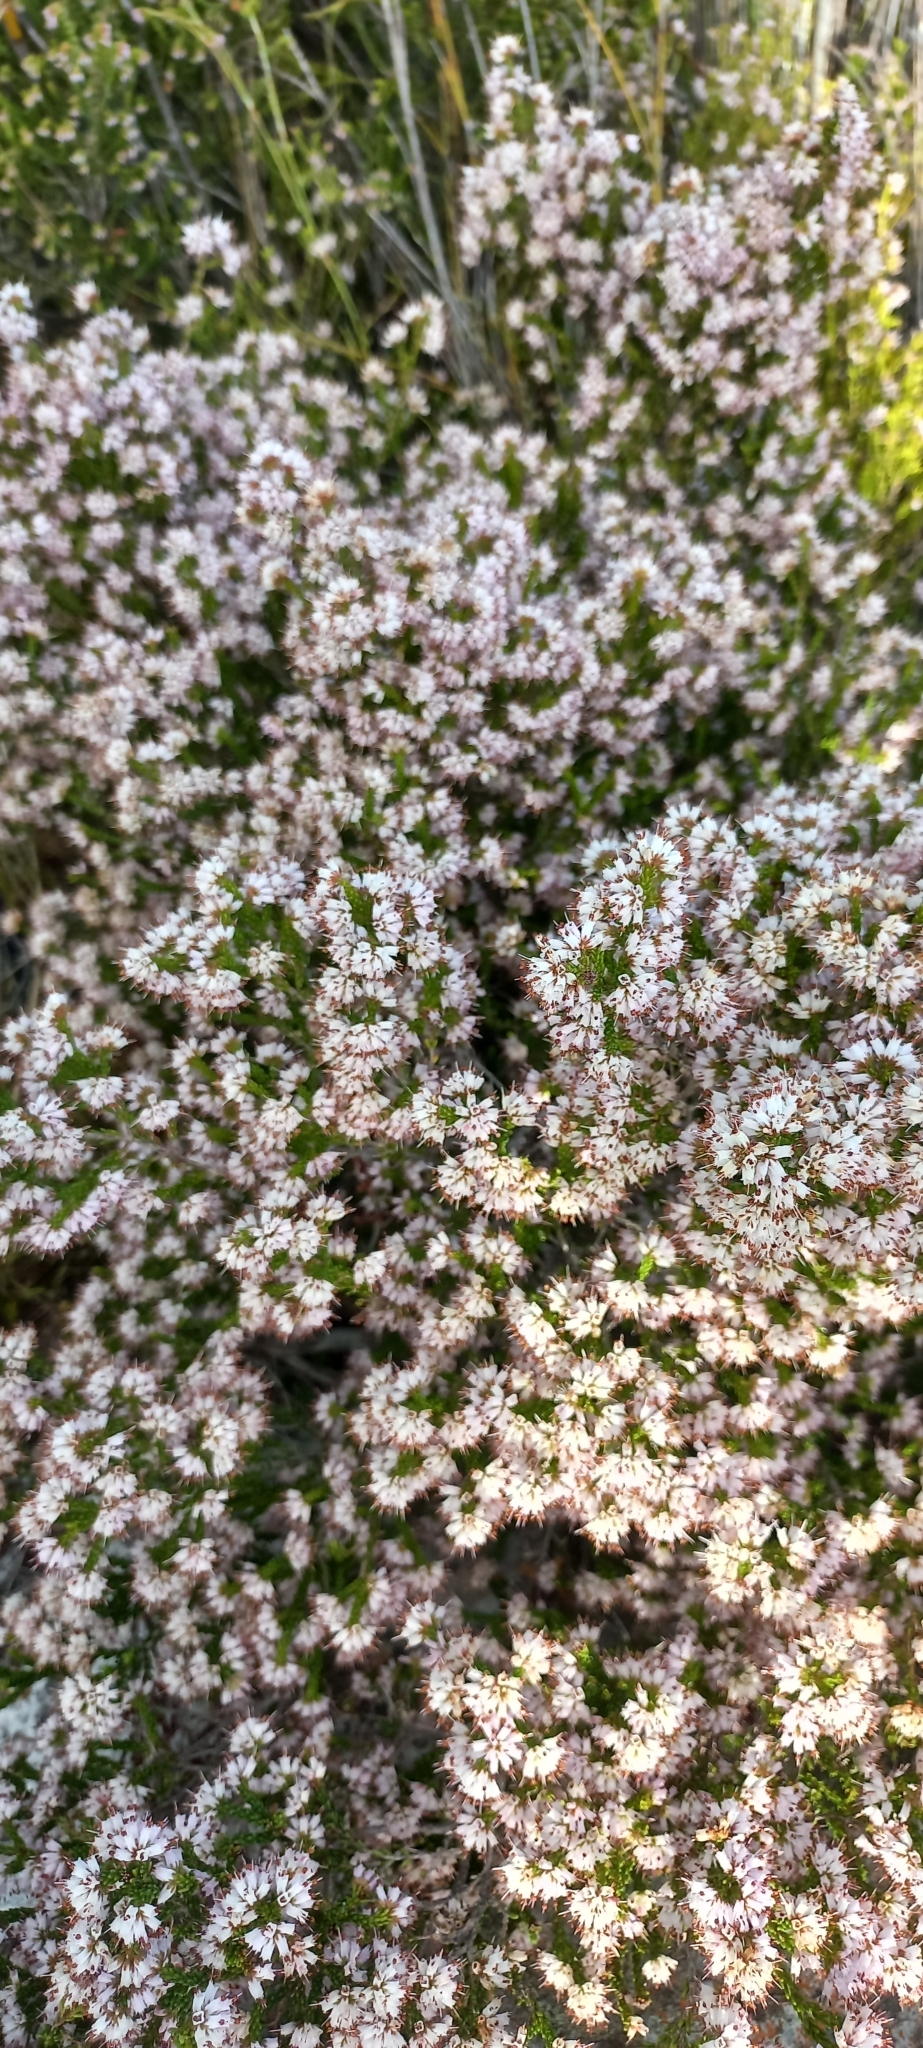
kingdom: Plantae
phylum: Tracheophyta
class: Magnoliopsida
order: Ericales
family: Ericaceae
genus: Erica
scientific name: Erica ericoides
